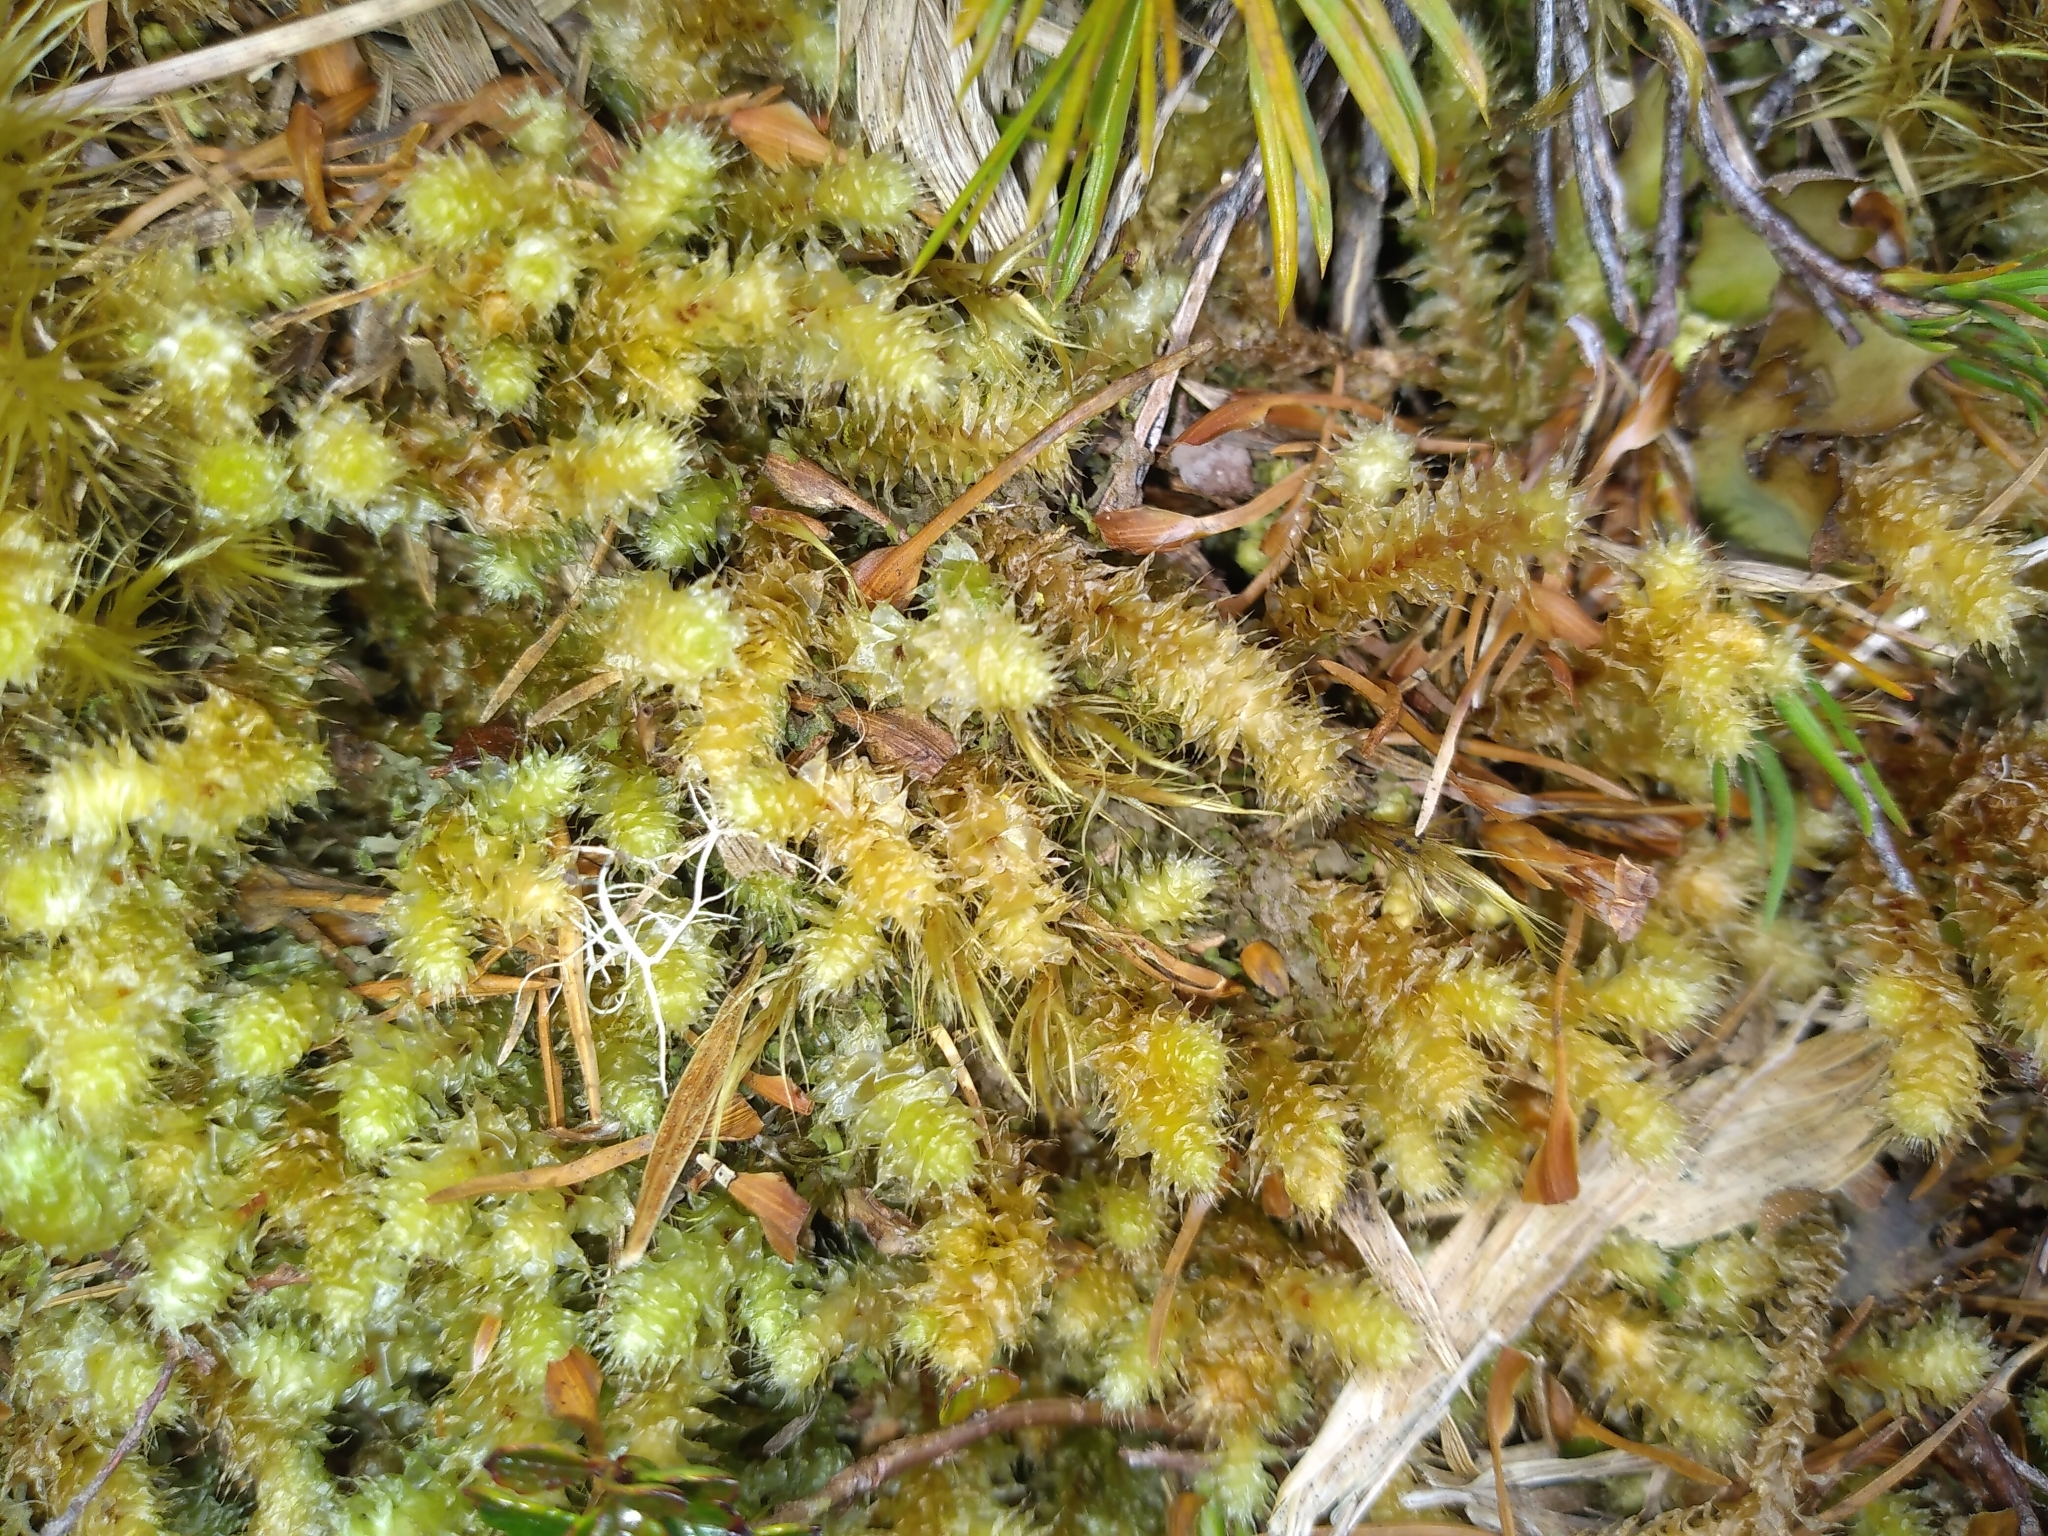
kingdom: Plantae
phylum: Bryophyta
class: Bryopsida
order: Ptychomniales
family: Ptychomniaceae
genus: Ptychomnion
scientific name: Ptychomnion aciculare
